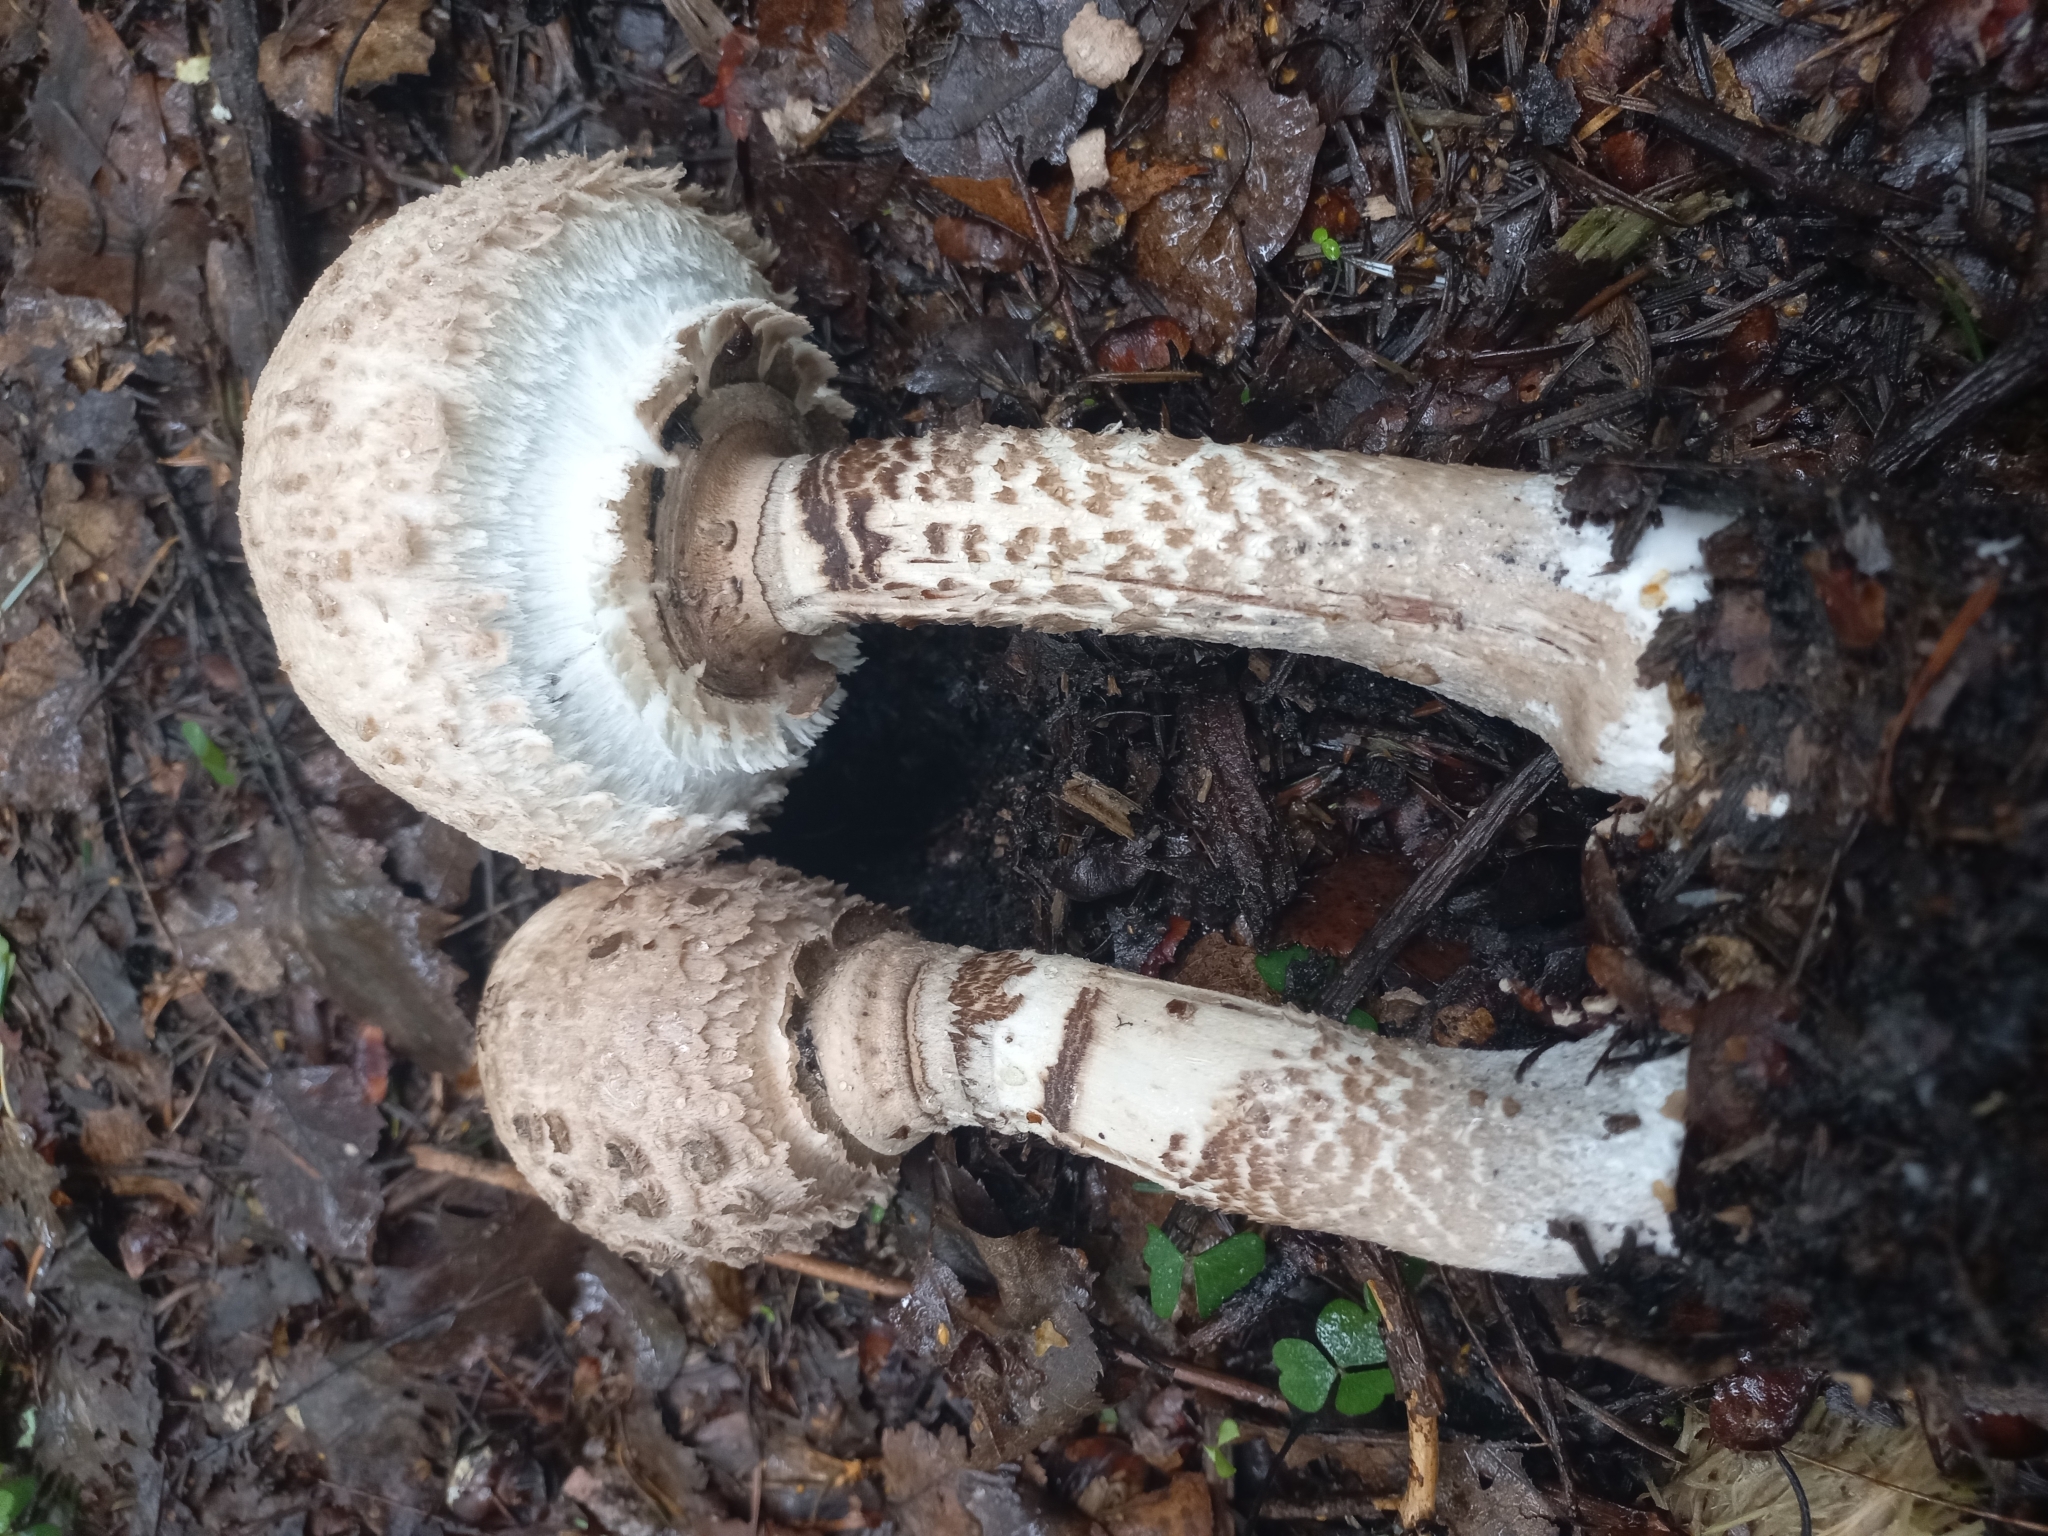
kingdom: Fungi
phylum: Basidiomycota
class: Agaricomycetes
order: Agaricales
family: Agaricaceae
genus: Macrolepiota
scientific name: Macrolepiota procera
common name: Parasol
